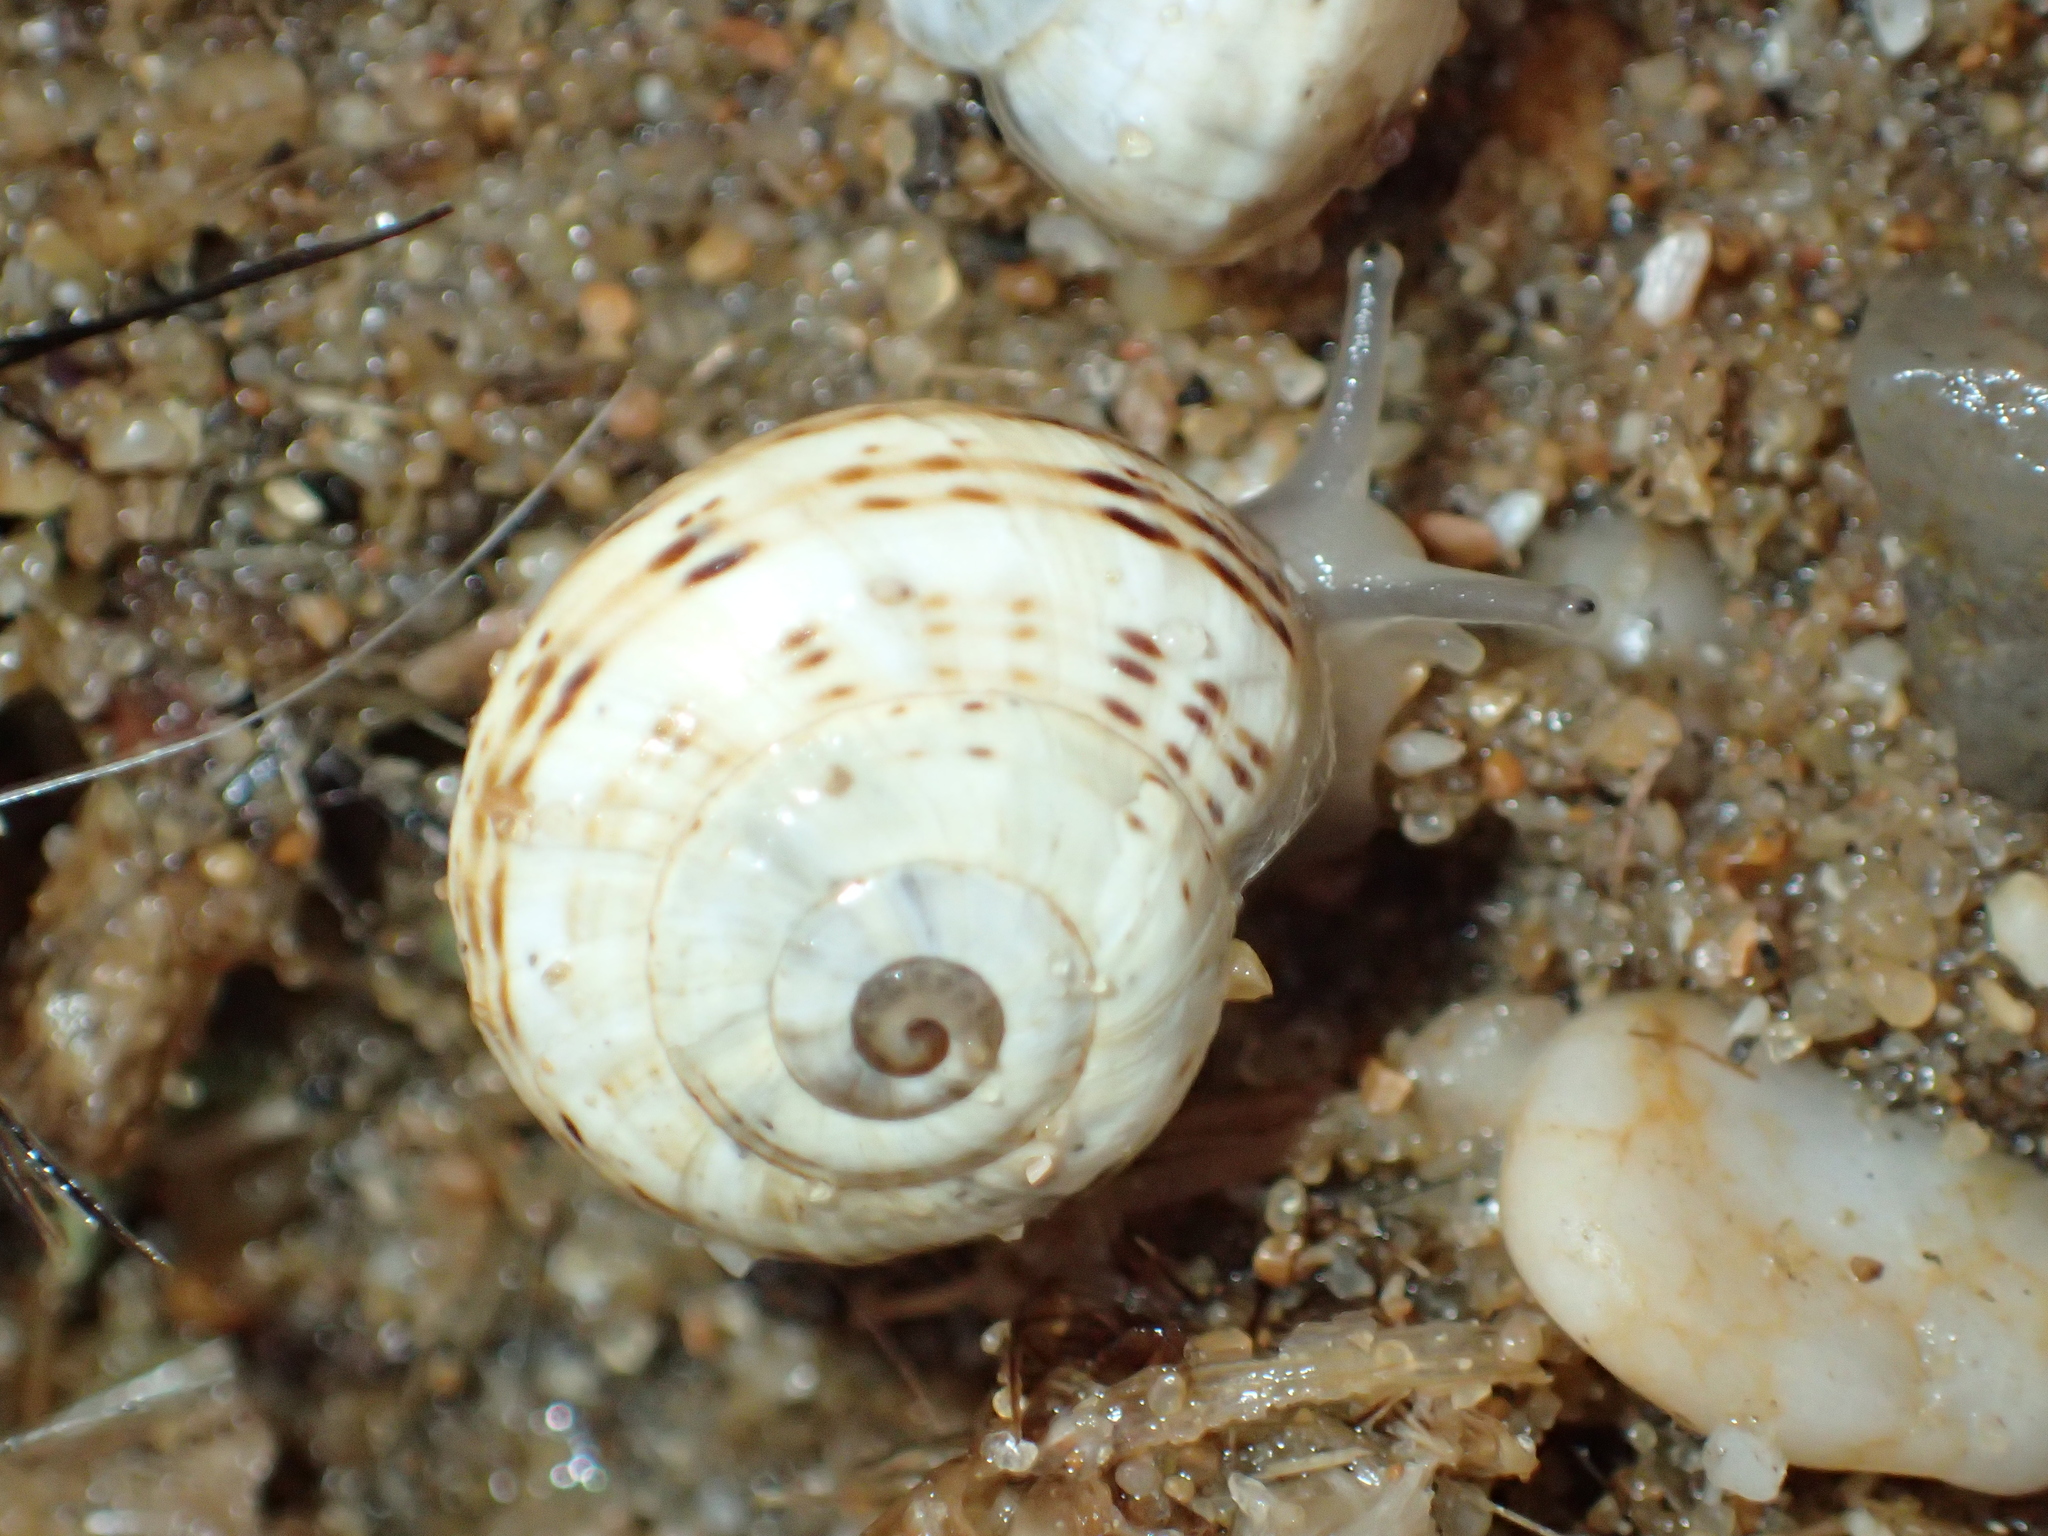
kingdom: Animalia
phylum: Mollusca
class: Gastropoda
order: Stylommatophora
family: Helicidae
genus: Theba
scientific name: Theba pisana
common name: White snail
